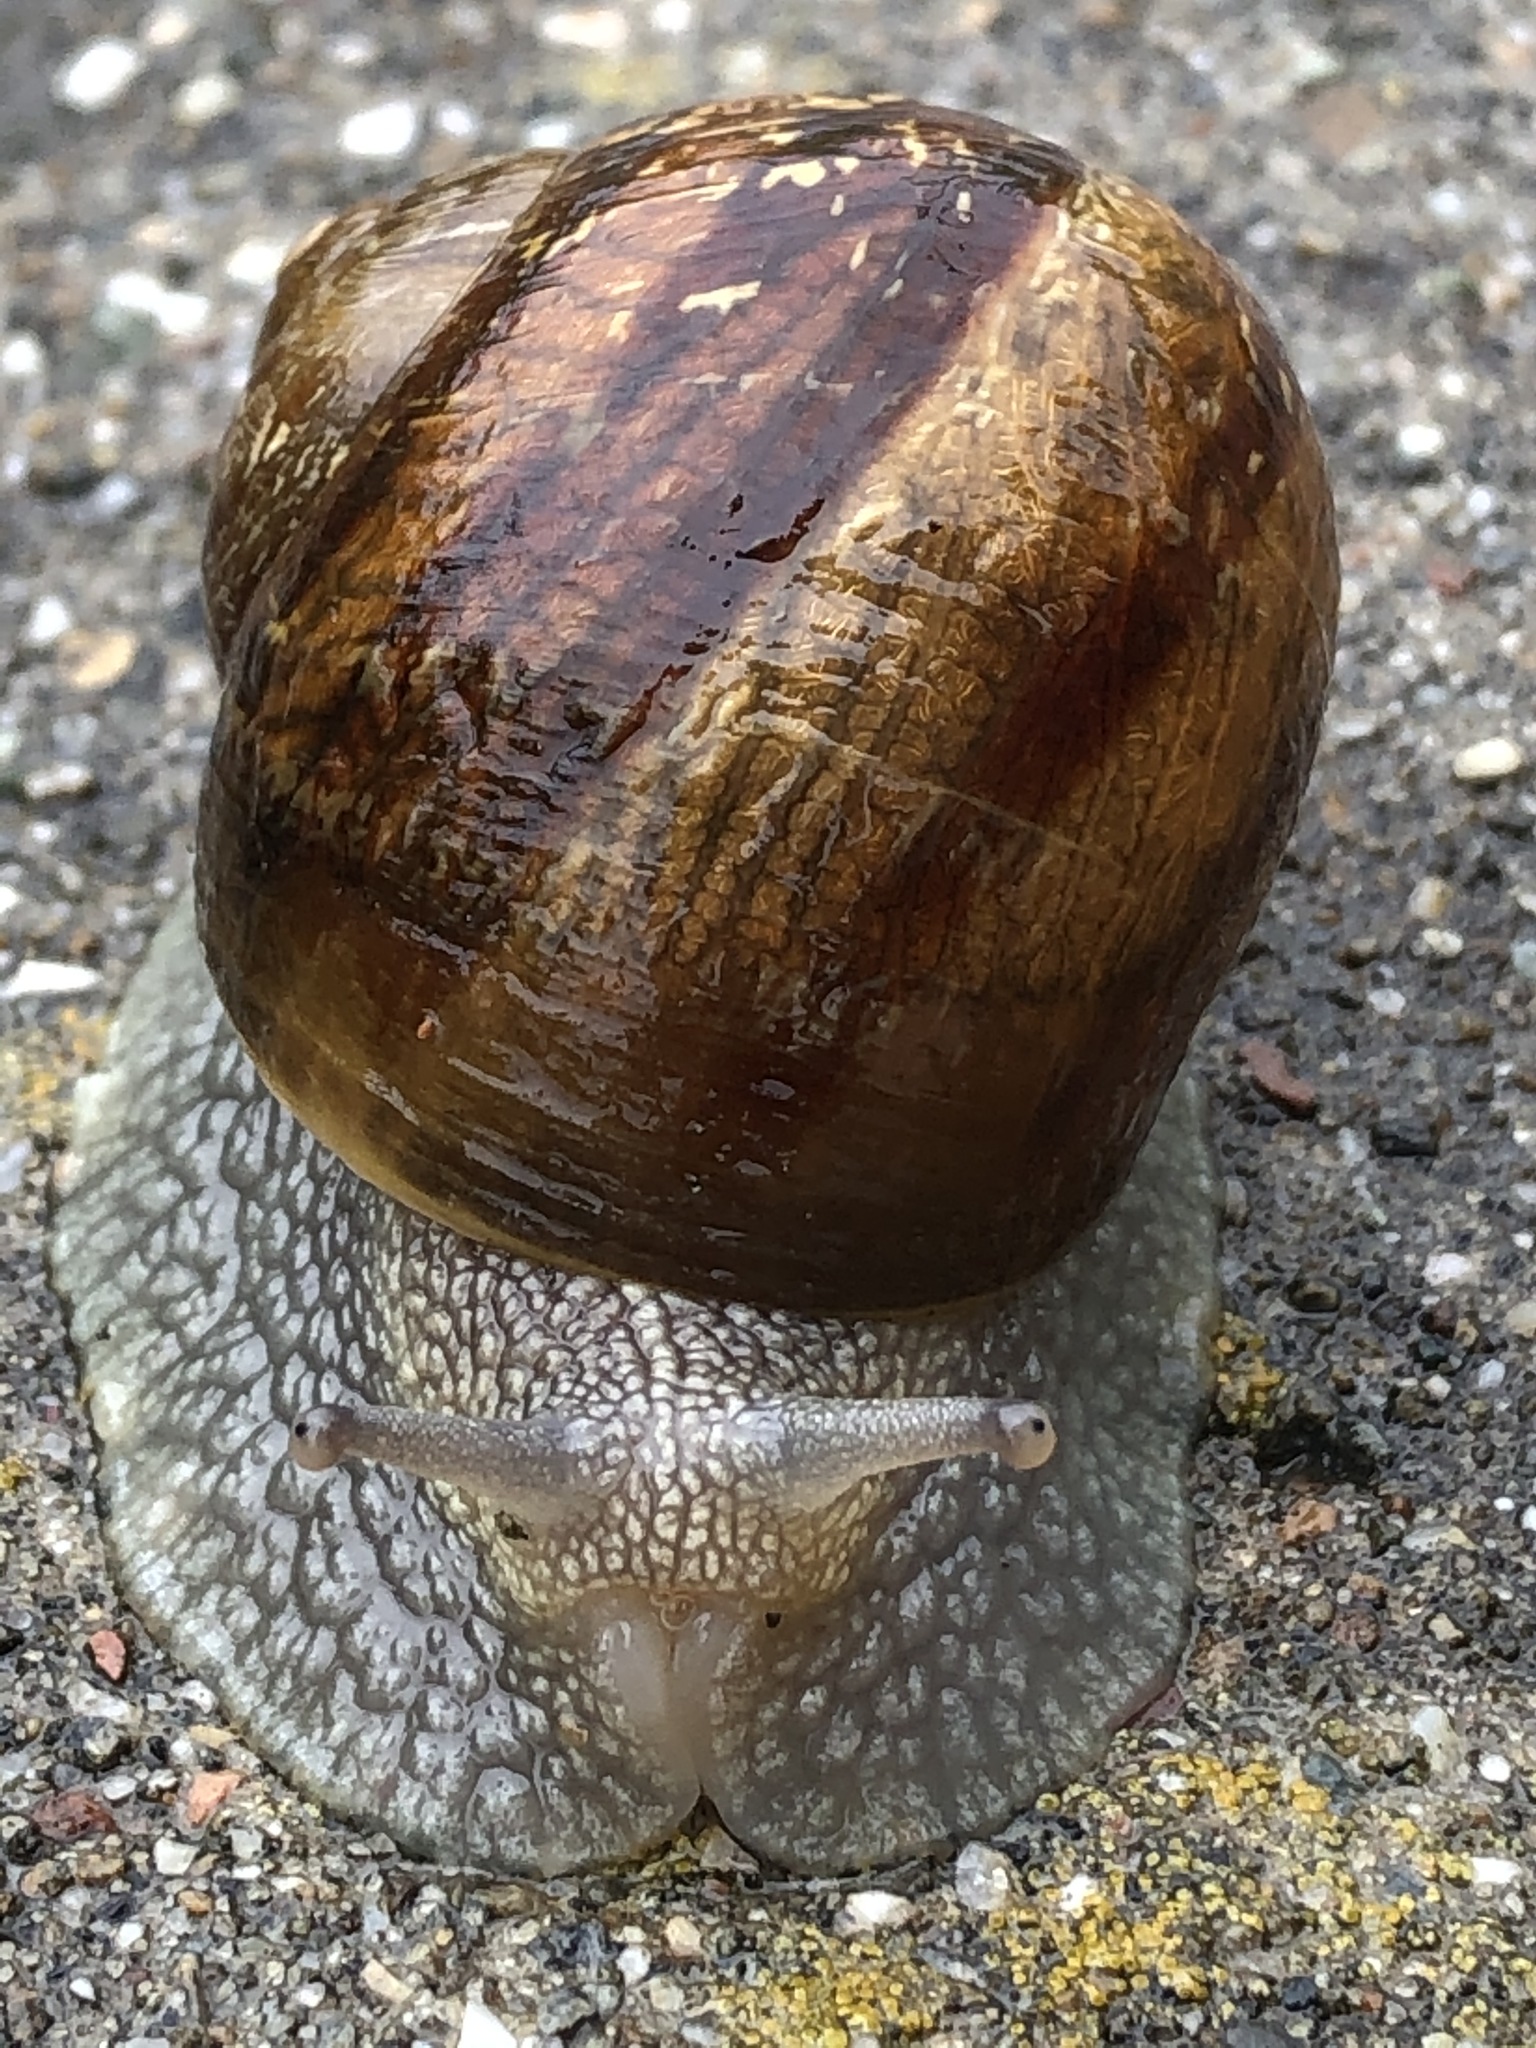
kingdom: Animalia
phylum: Mollusca
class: Gastropoda
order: Stylommatophora
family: Helicidae
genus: Cornu
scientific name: Cornu aspersum
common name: Brown garden snail
